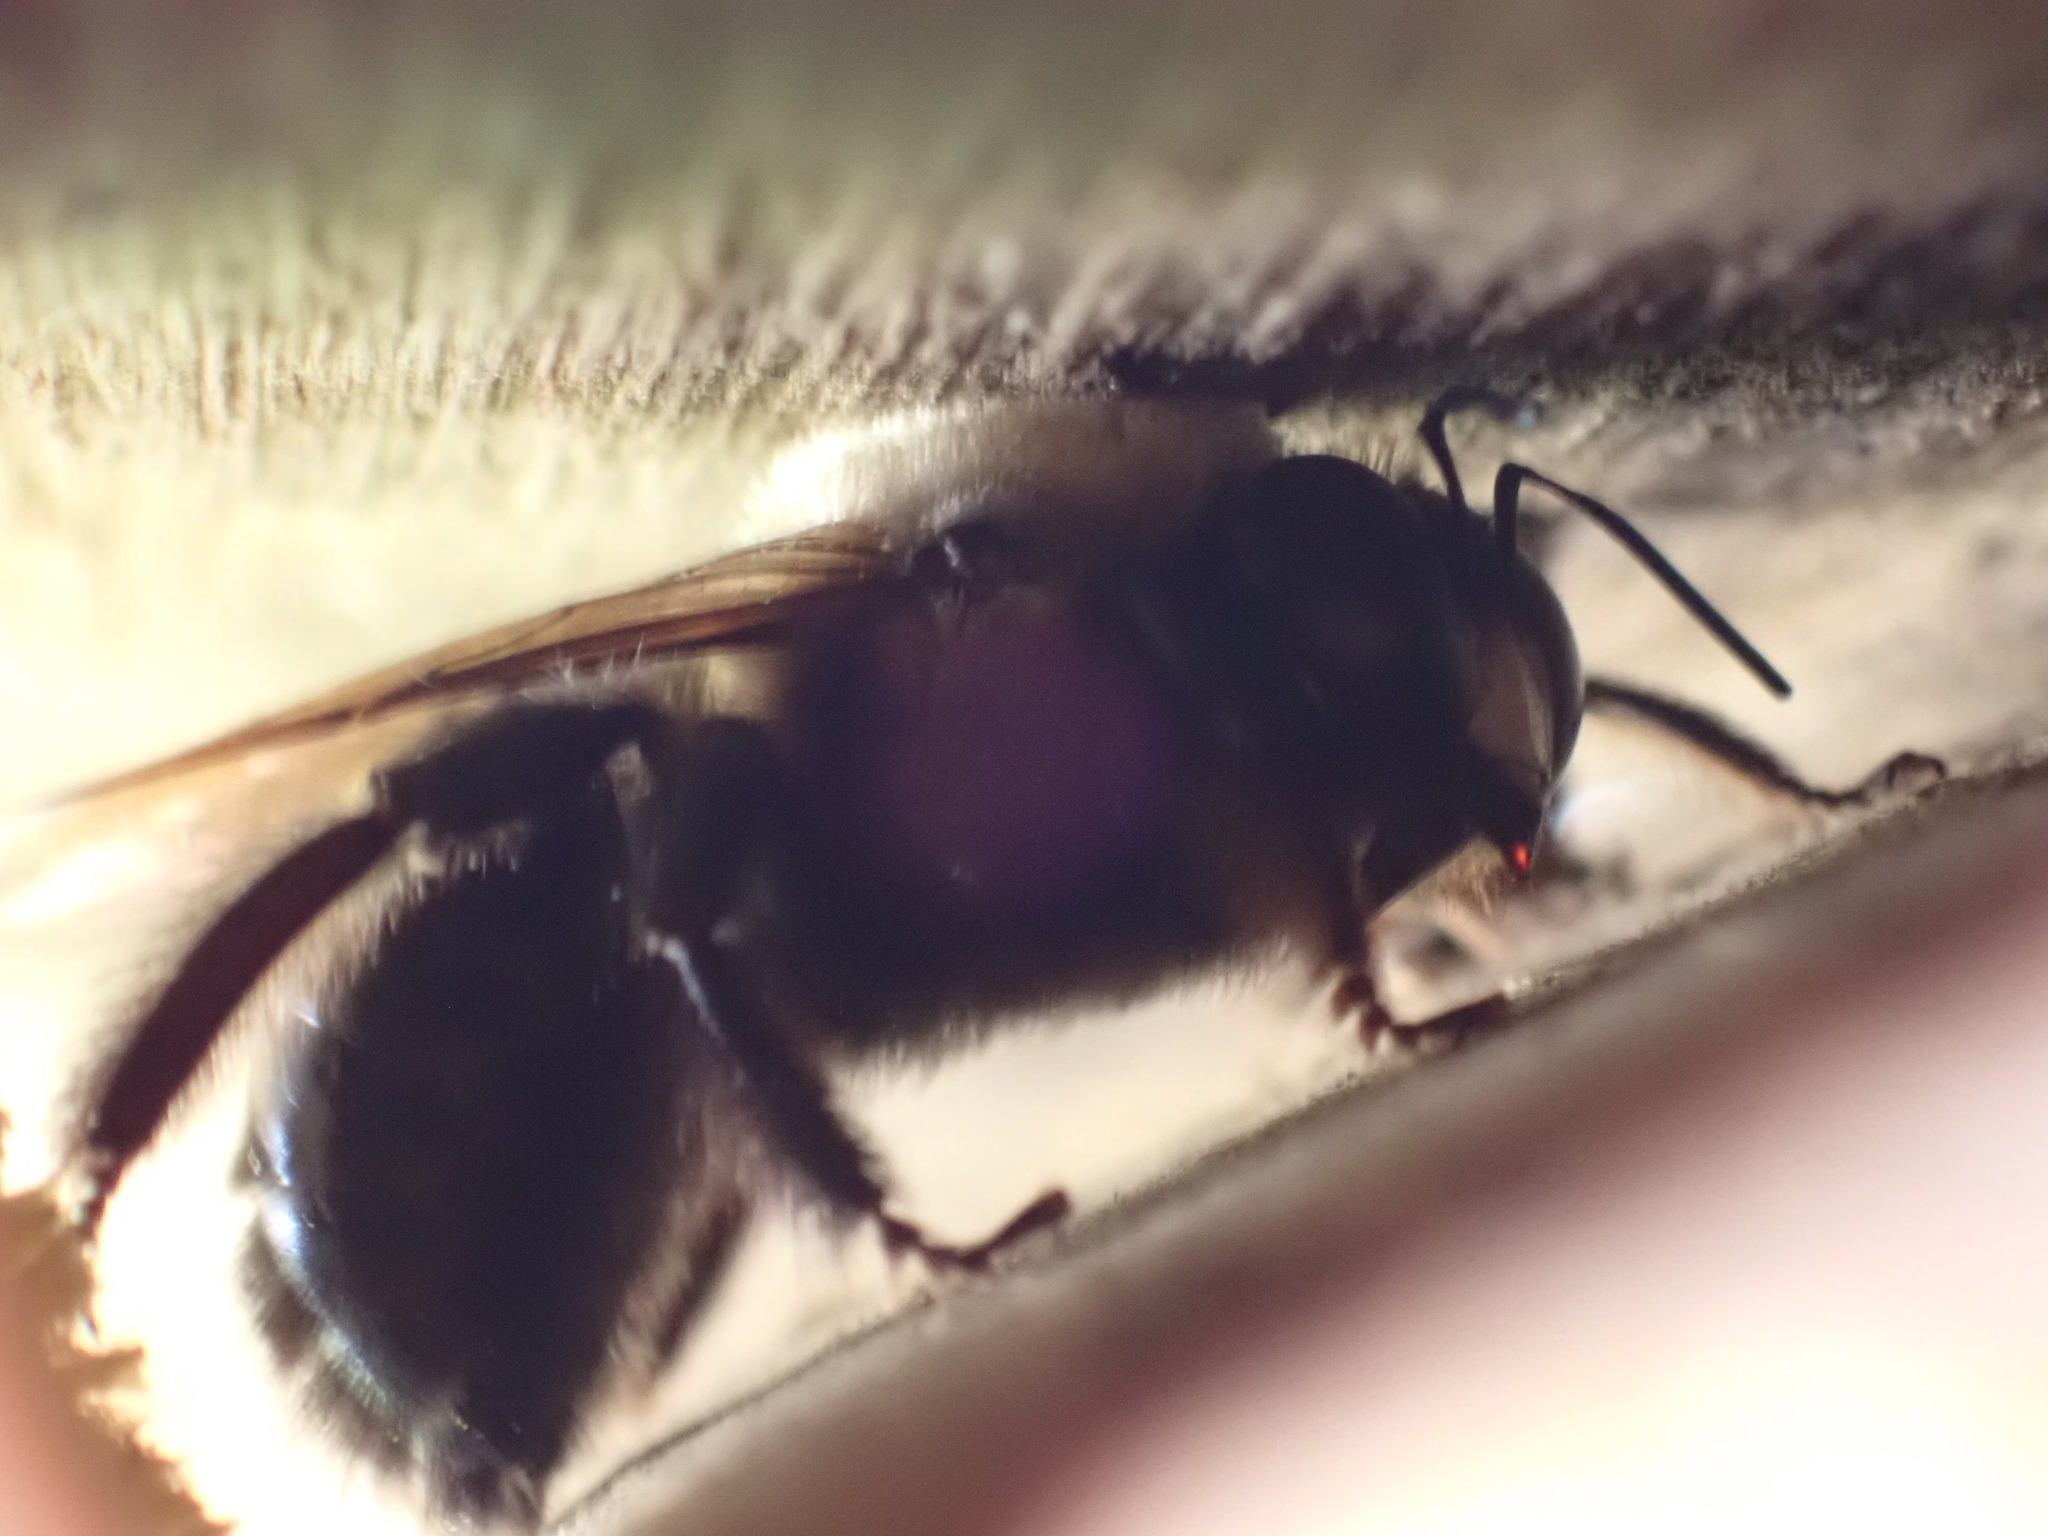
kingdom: Animalia
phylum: Arthropoda
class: Insecta
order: Hymenoptera
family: Apidae
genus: Xylocopa
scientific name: Xylocopa virginica
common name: Carpenter bee
